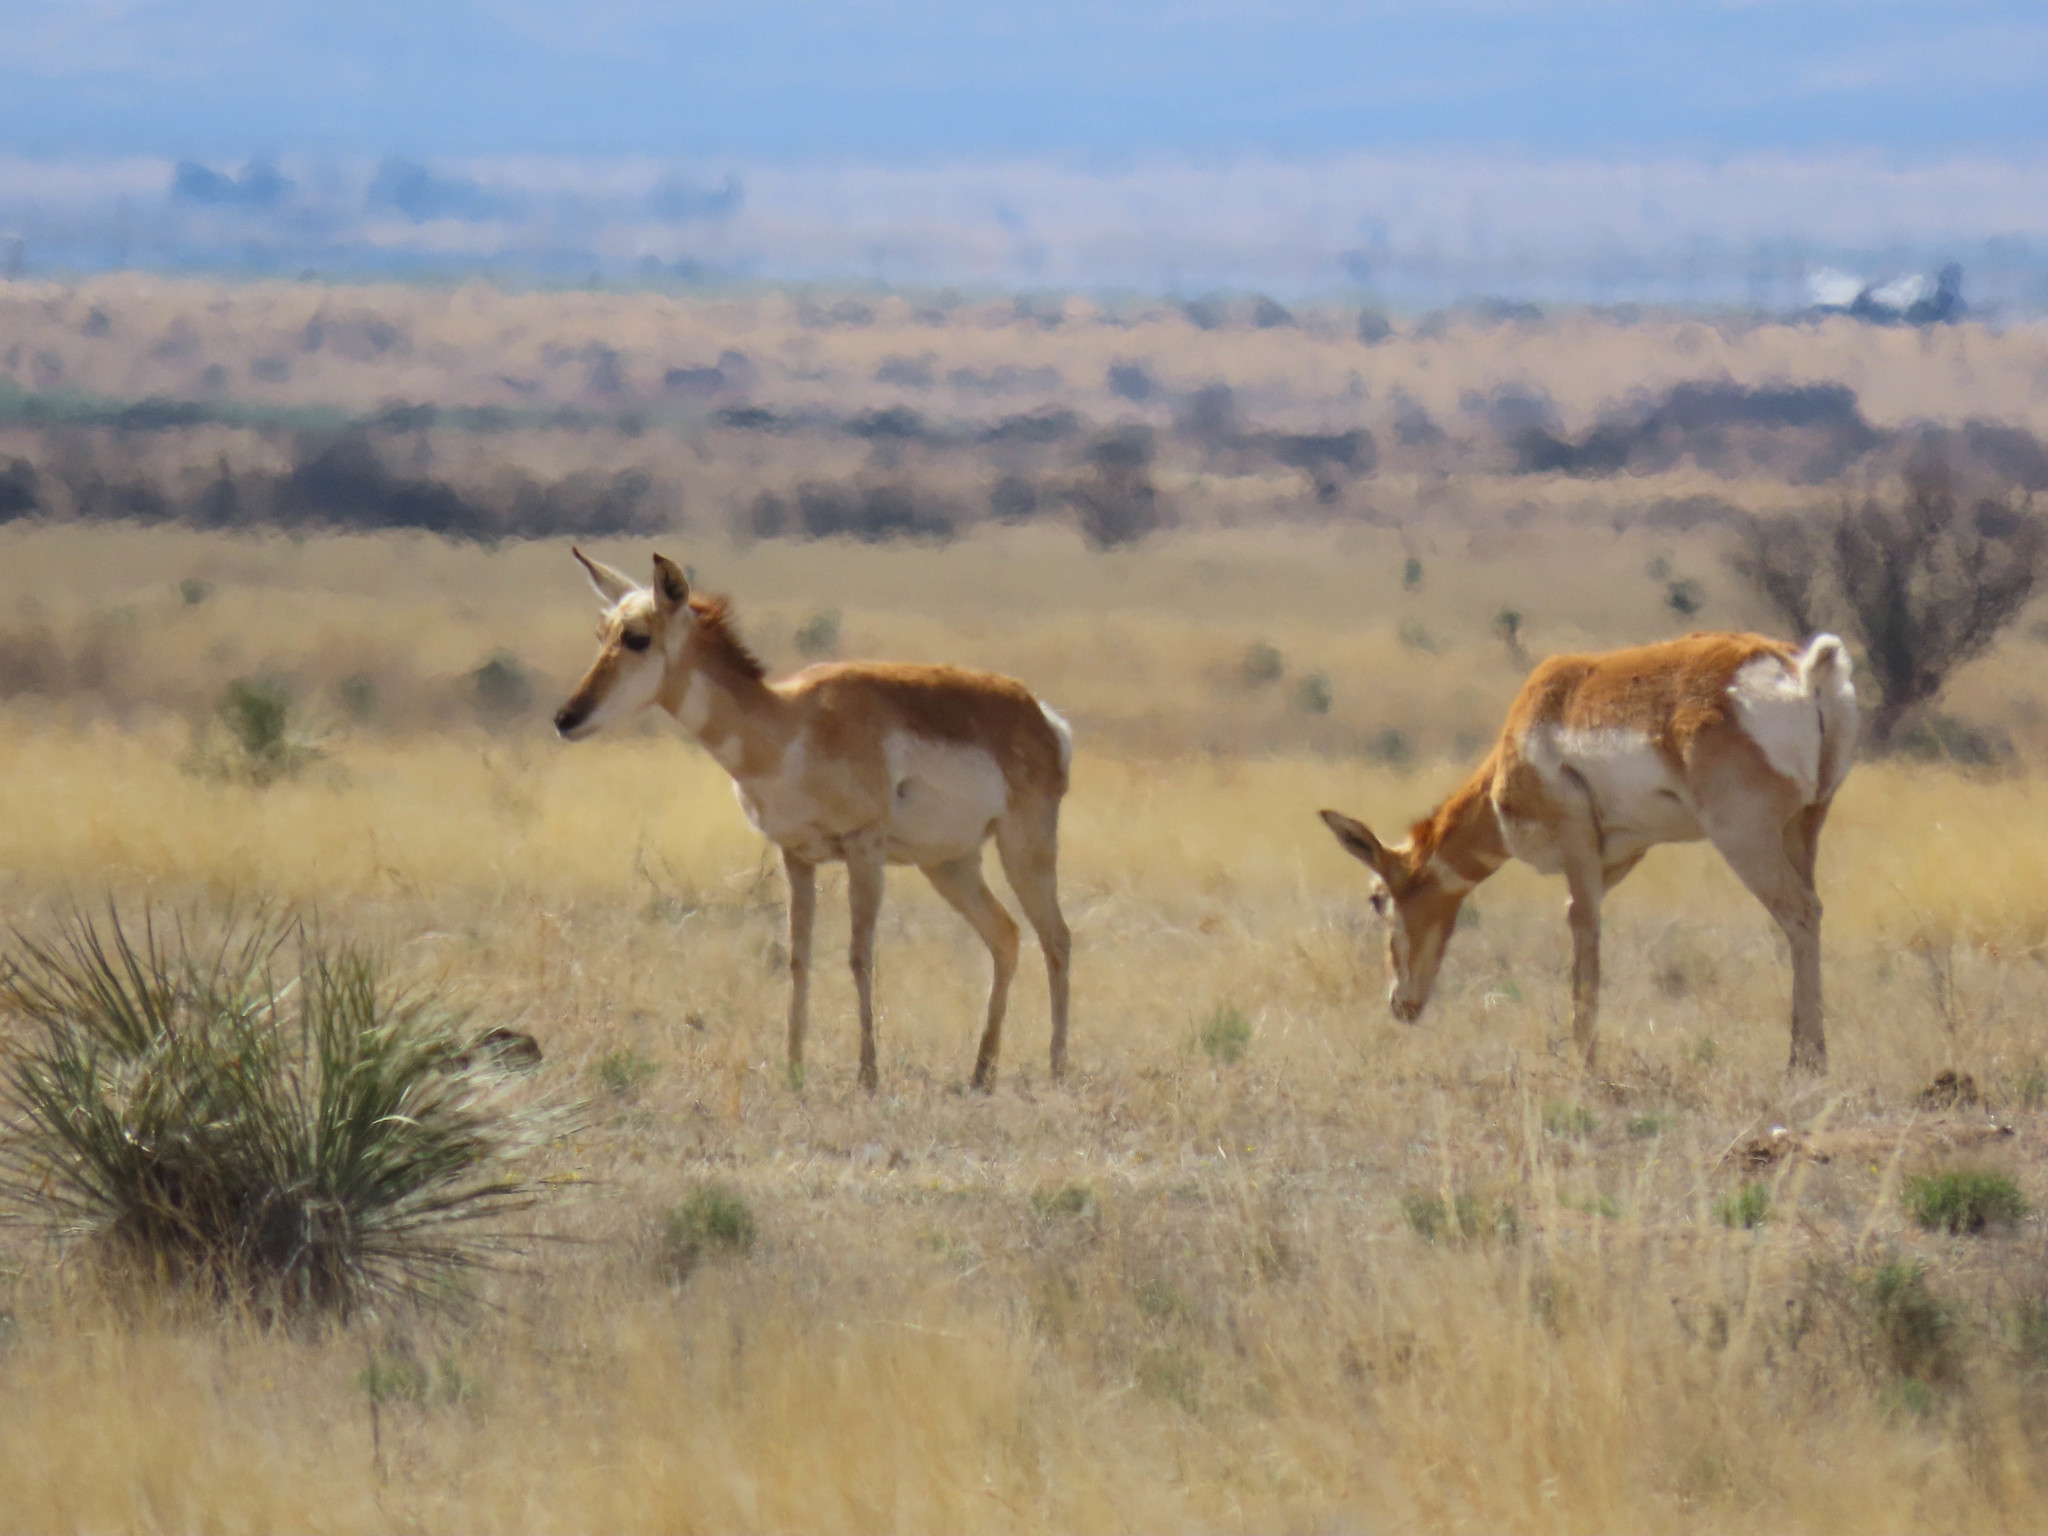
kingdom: Animalia
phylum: Chordata
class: Mammalia
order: Artiodactyla
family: Antilocapridae
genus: Antilocapra
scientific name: Antilocapra americana
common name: Pronghorn
